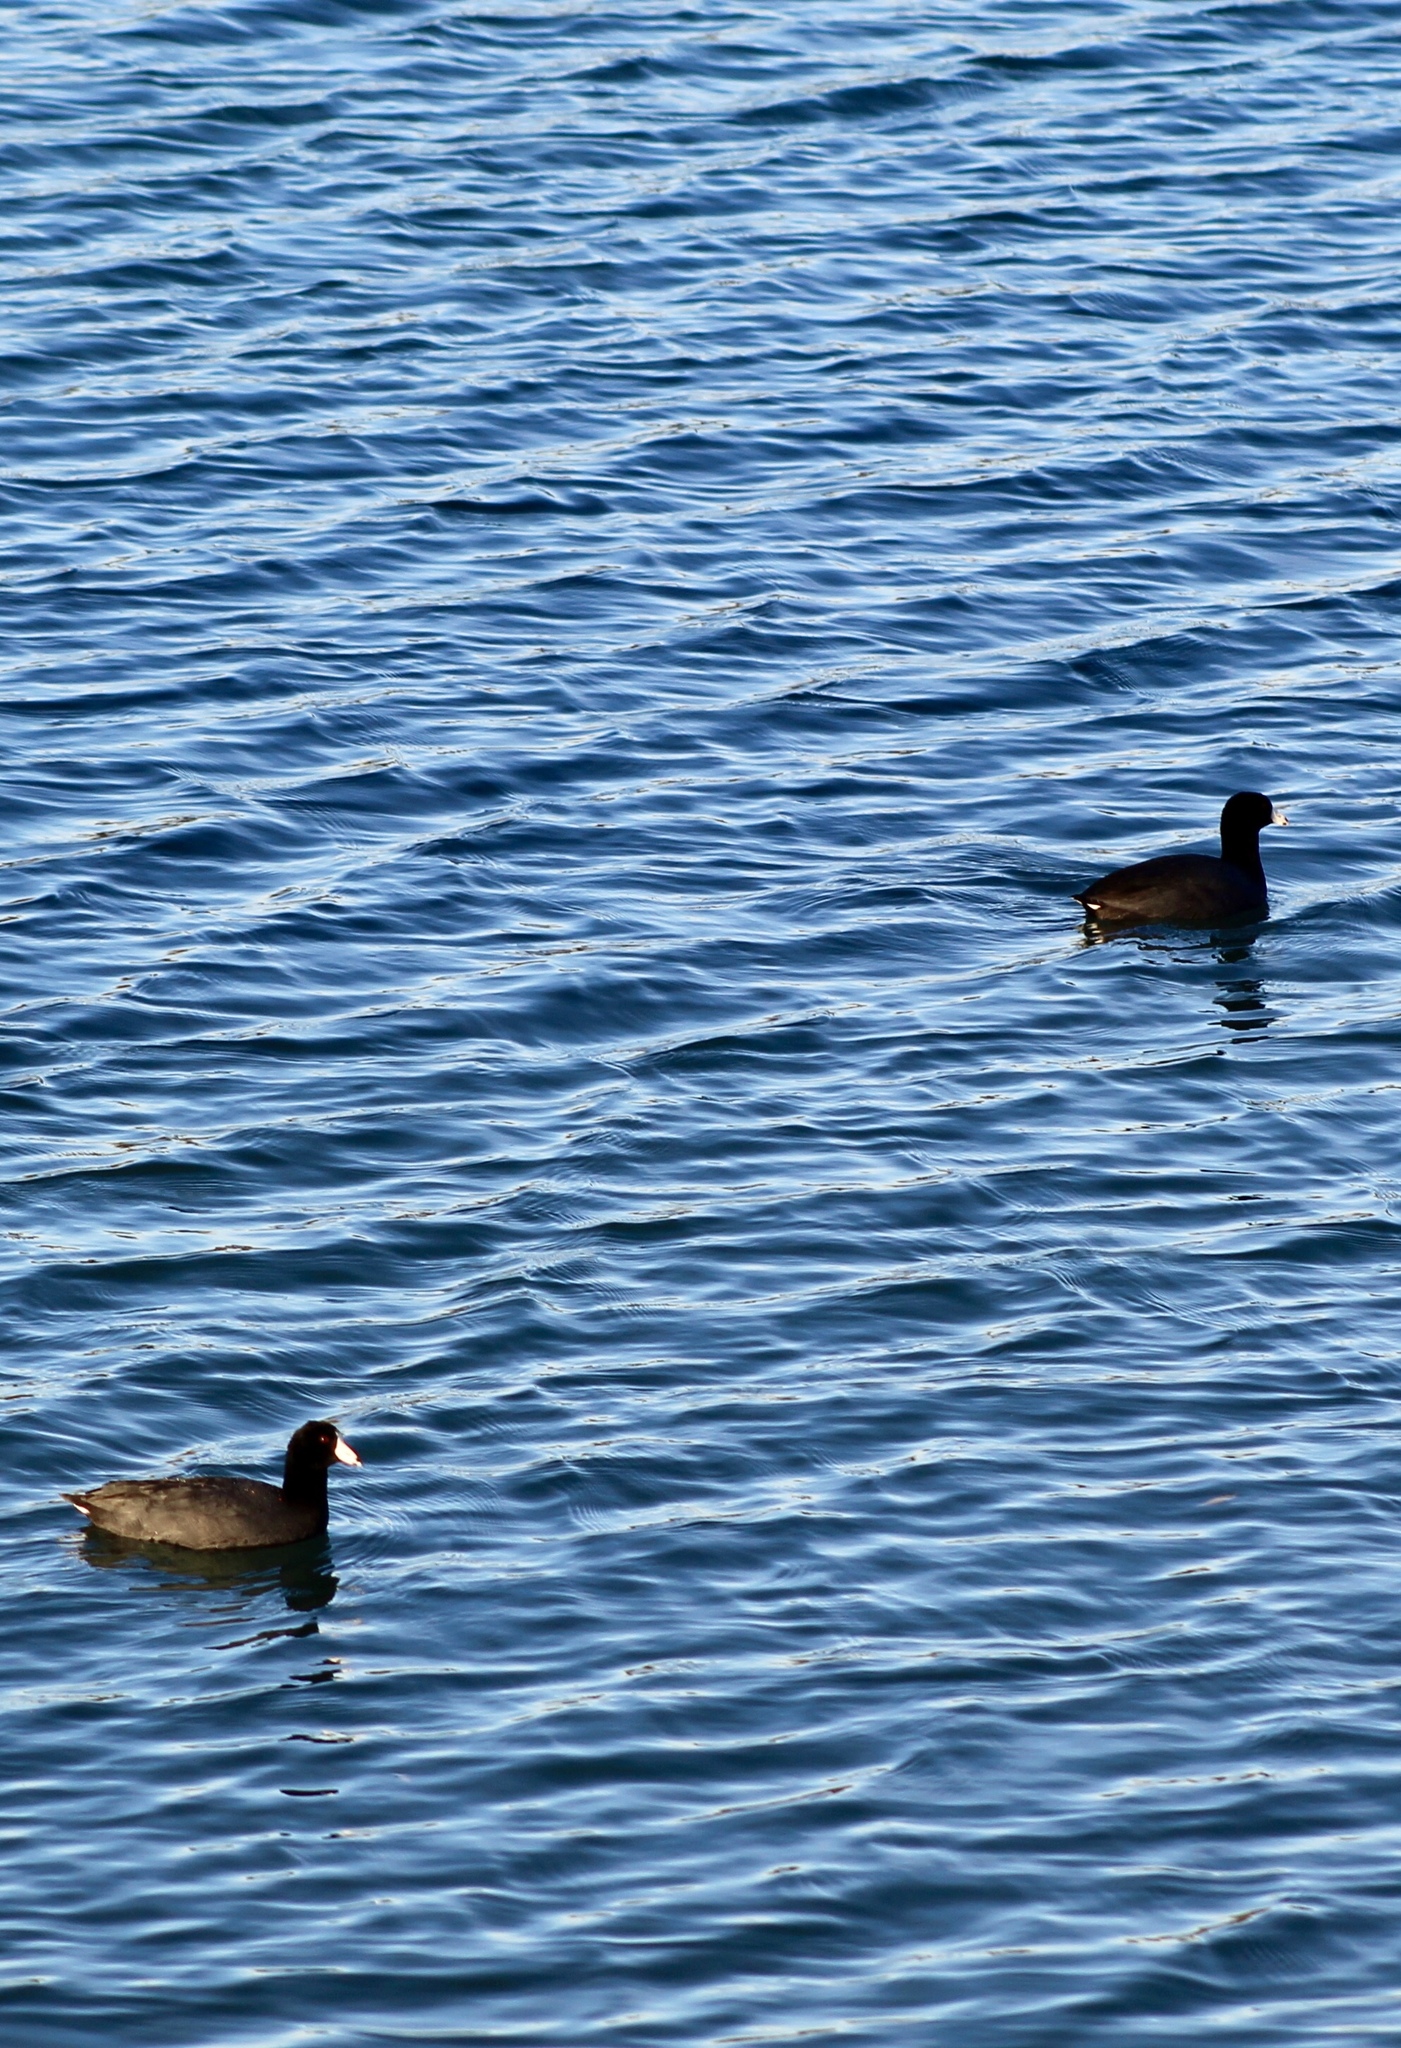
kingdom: Animalia
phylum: Chordata
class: Aves
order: Gruiformes
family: Rallidae
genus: Fulica
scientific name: Fulica americana
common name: American coot
